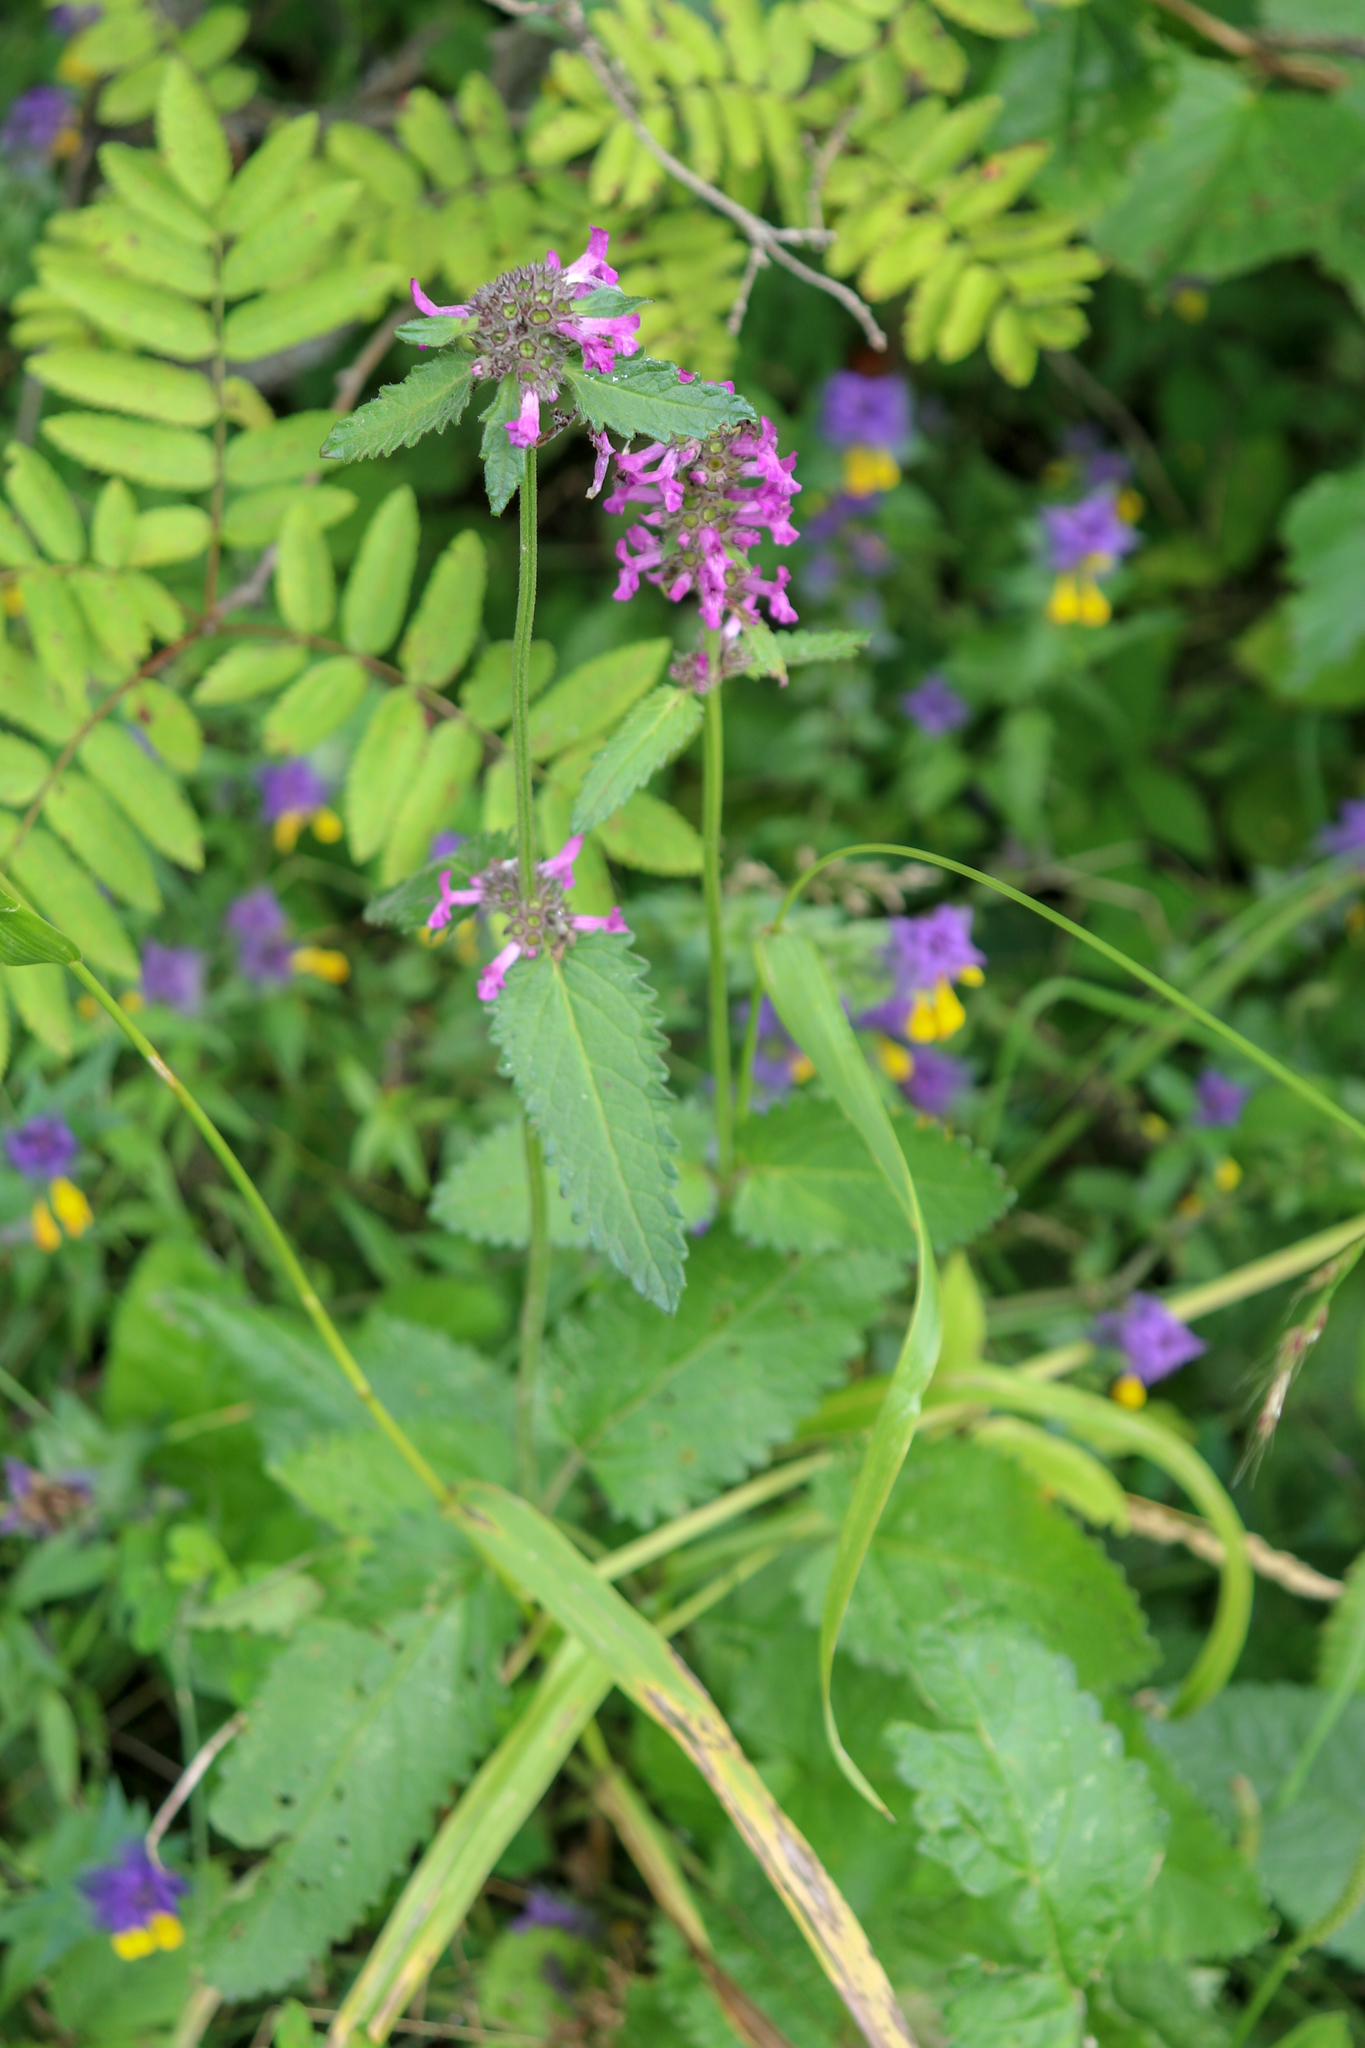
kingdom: Plantae
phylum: Tracheophyta
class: Magnoliopsida
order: Lamiales
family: Lamiaceae
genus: Betonica
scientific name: Betonica officinalis
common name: Bishop's-wort
